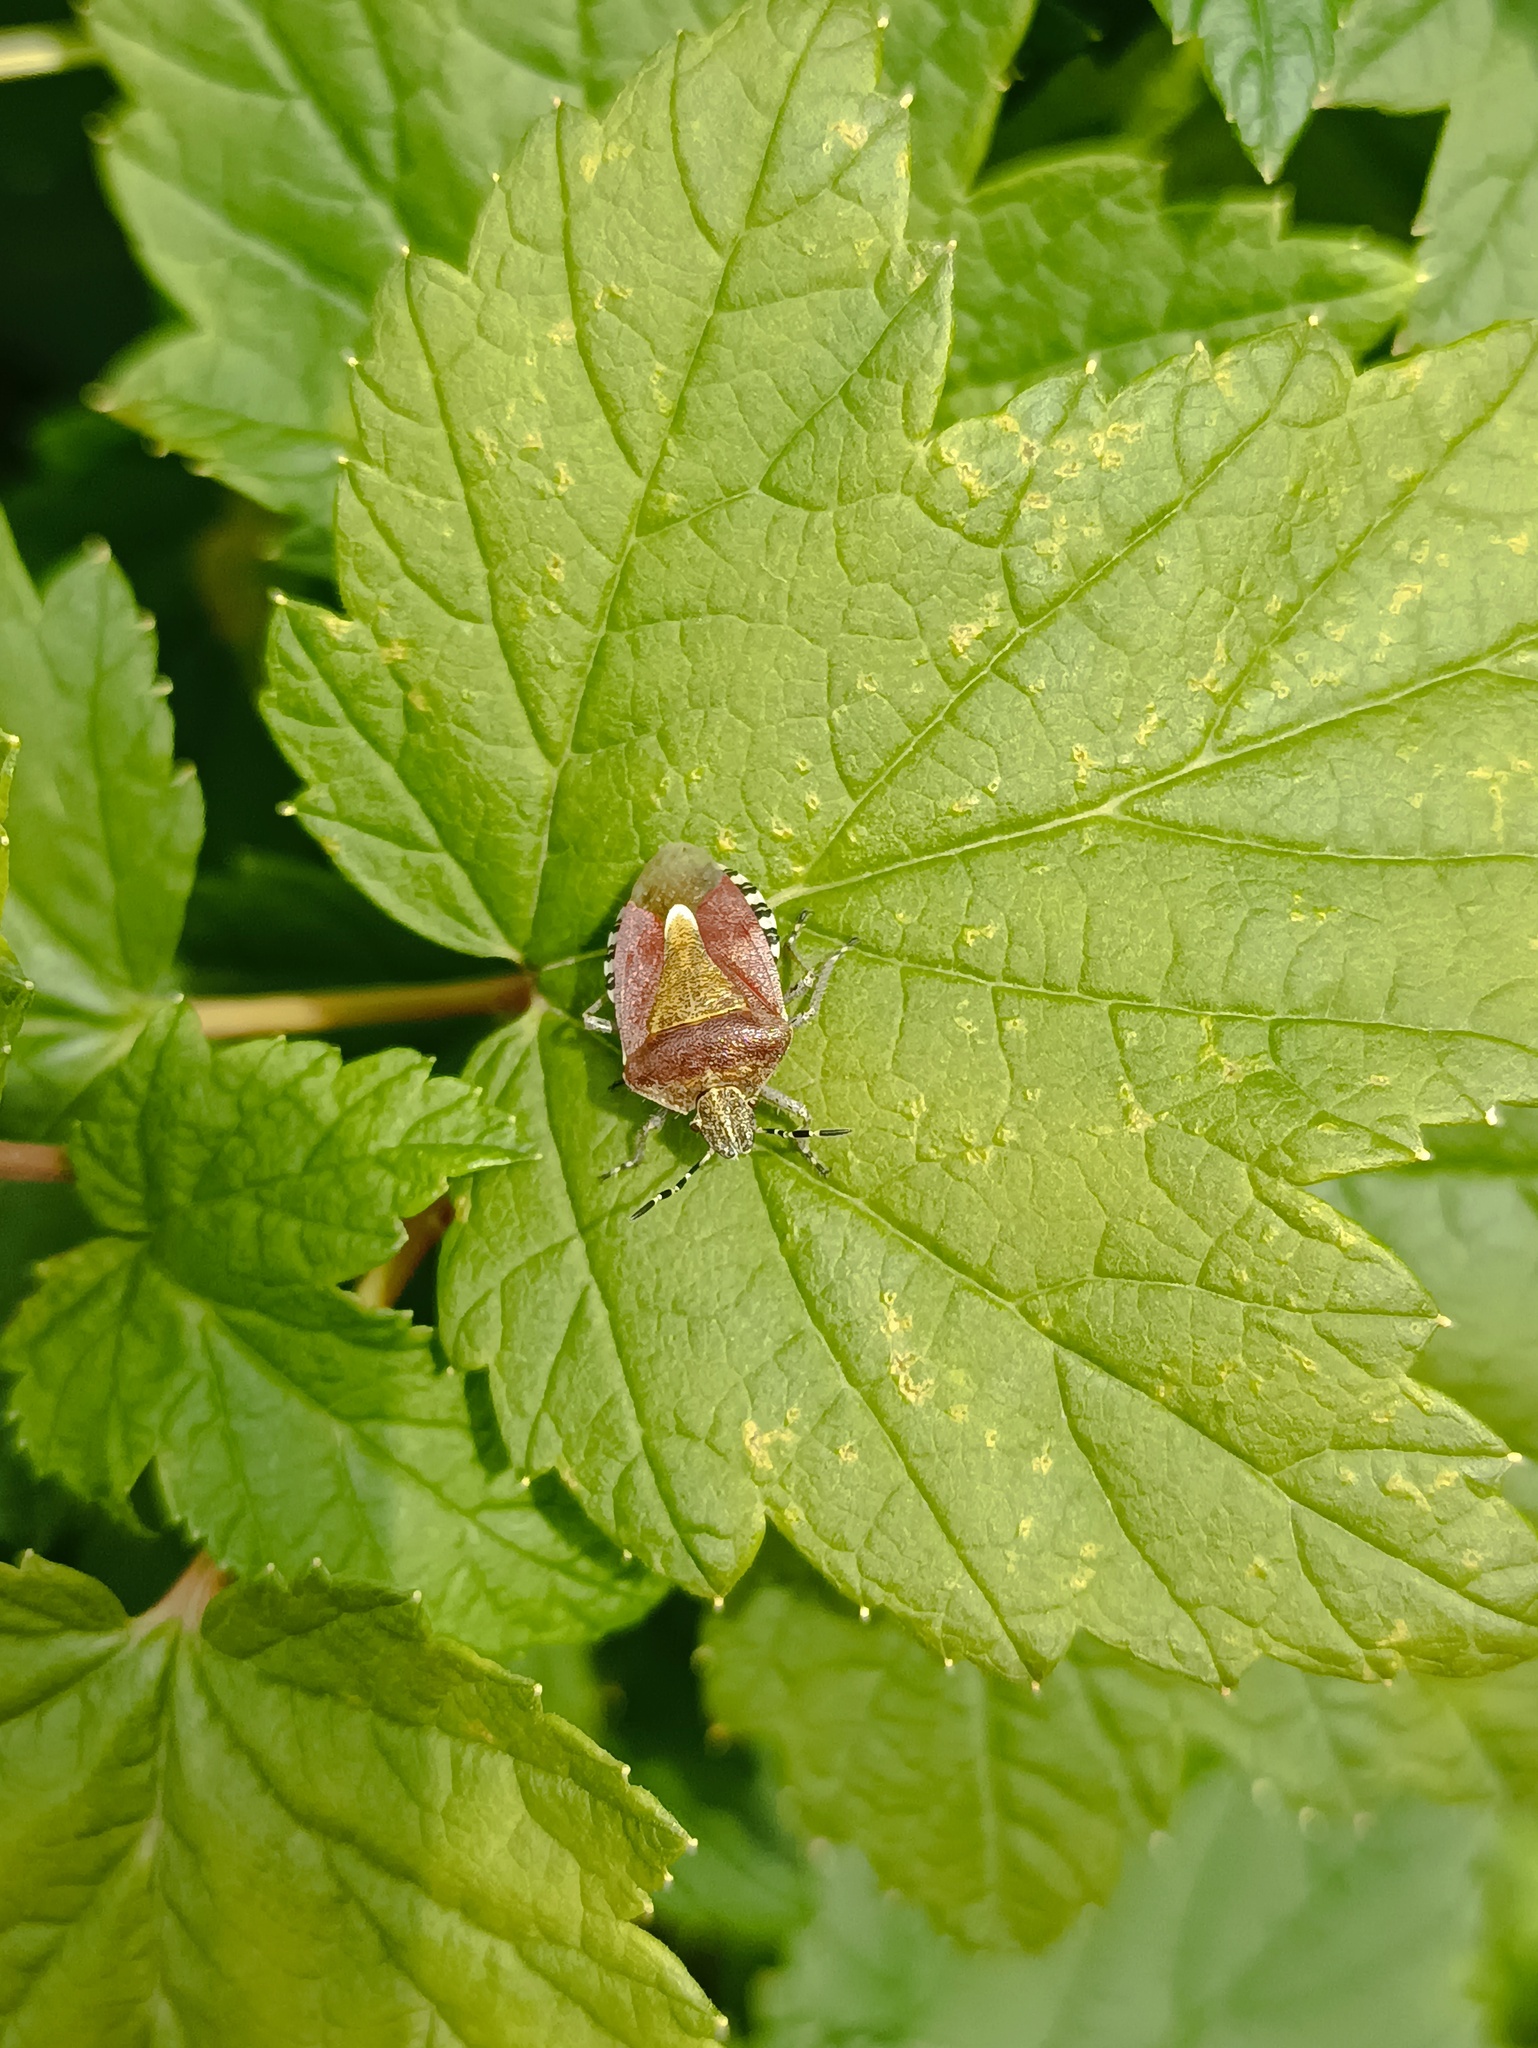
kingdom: Animalia
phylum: Arthropoda
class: Insecta
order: Hemiptera
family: Pentatomidae
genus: Dolycoris
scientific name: Dolycoris baccarum
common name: Sloe bug
